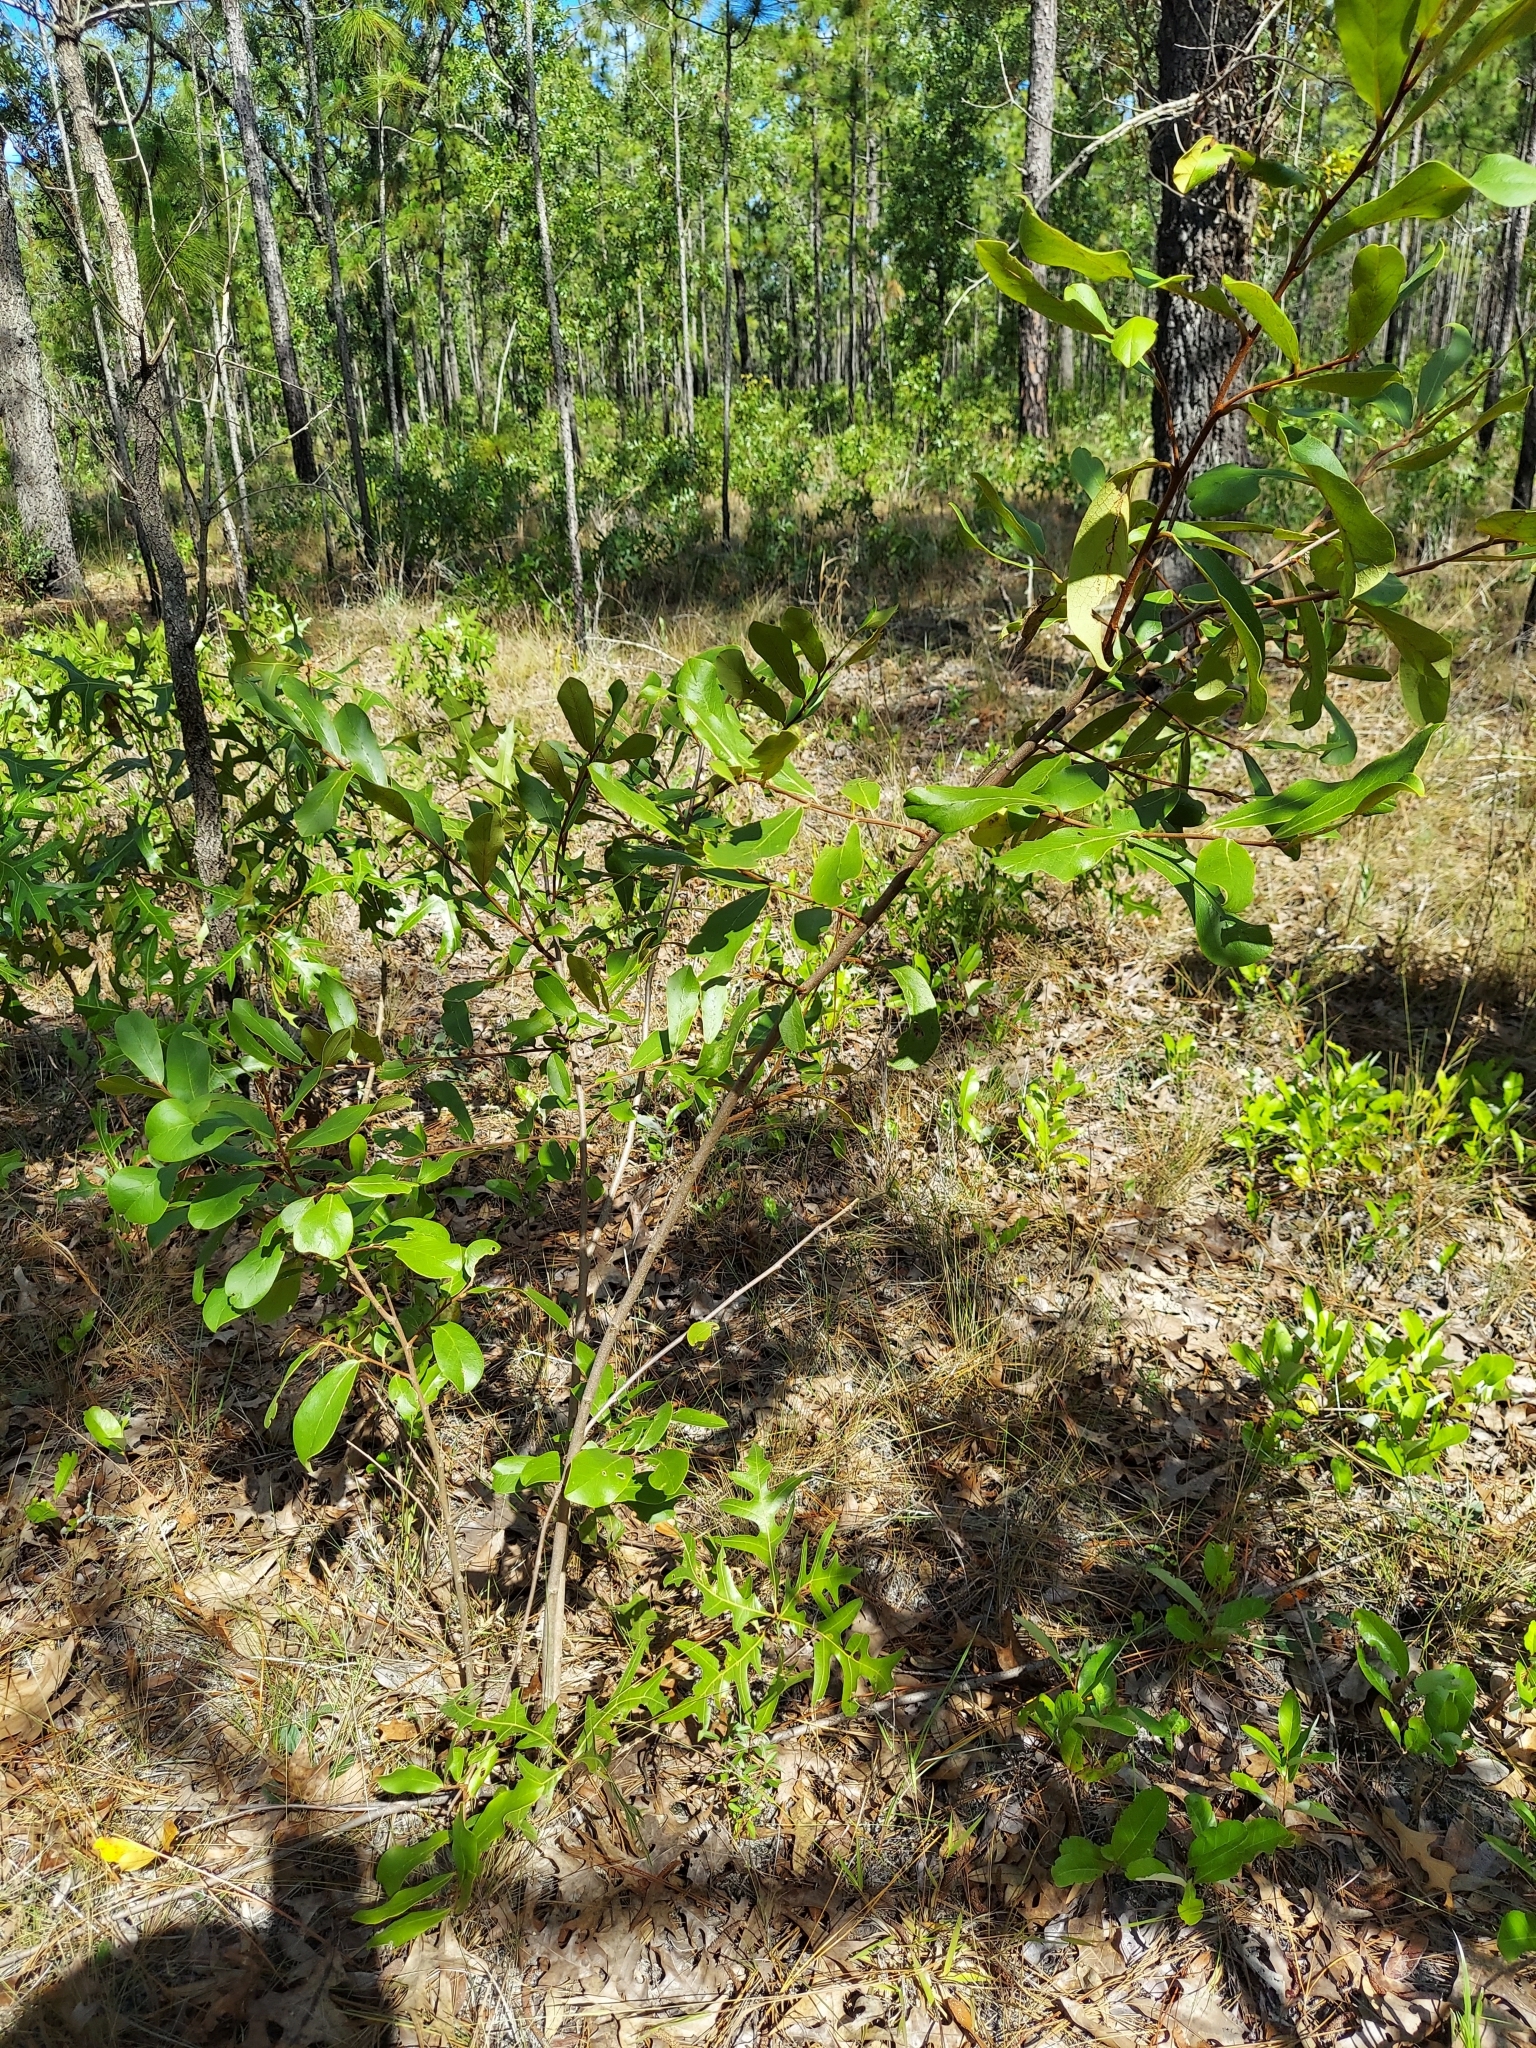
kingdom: Plantae
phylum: Tracheophyta
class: Magnoliopsida
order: Magnoliales
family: Annonaceae
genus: Asimina
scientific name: Asimina obovata
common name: Flag pawpaw
